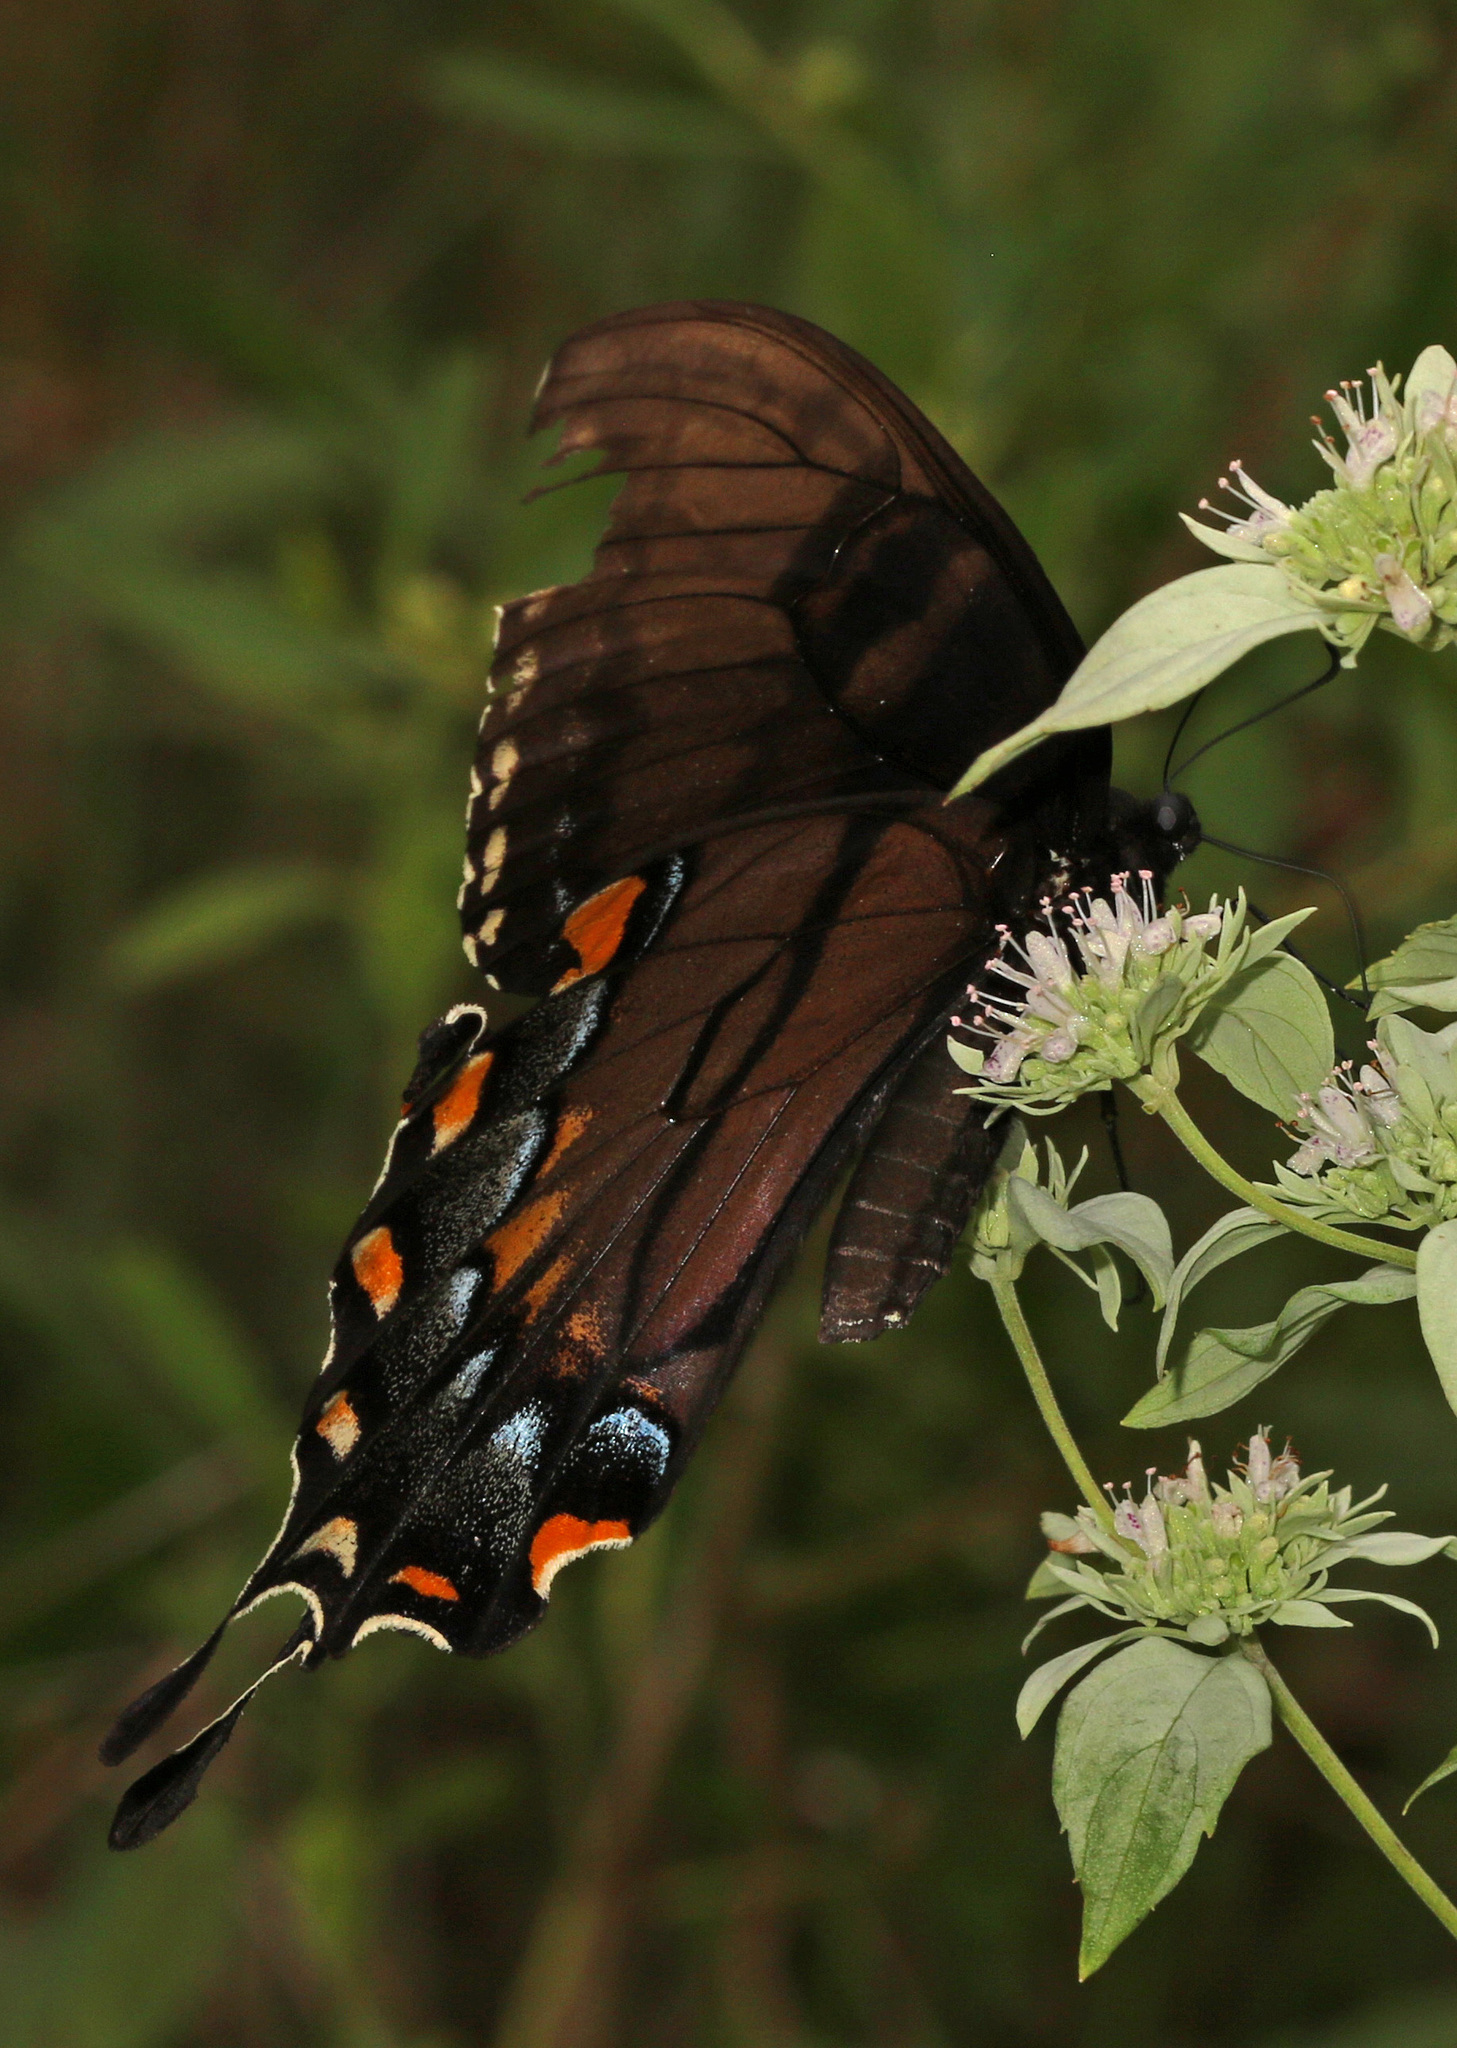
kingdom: Animalia
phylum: Arthropoda
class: Insecta
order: Lepidoptera
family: Papilionidae
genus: Papilio
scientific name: Papilio glaucus
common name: Tiger swallowtail
